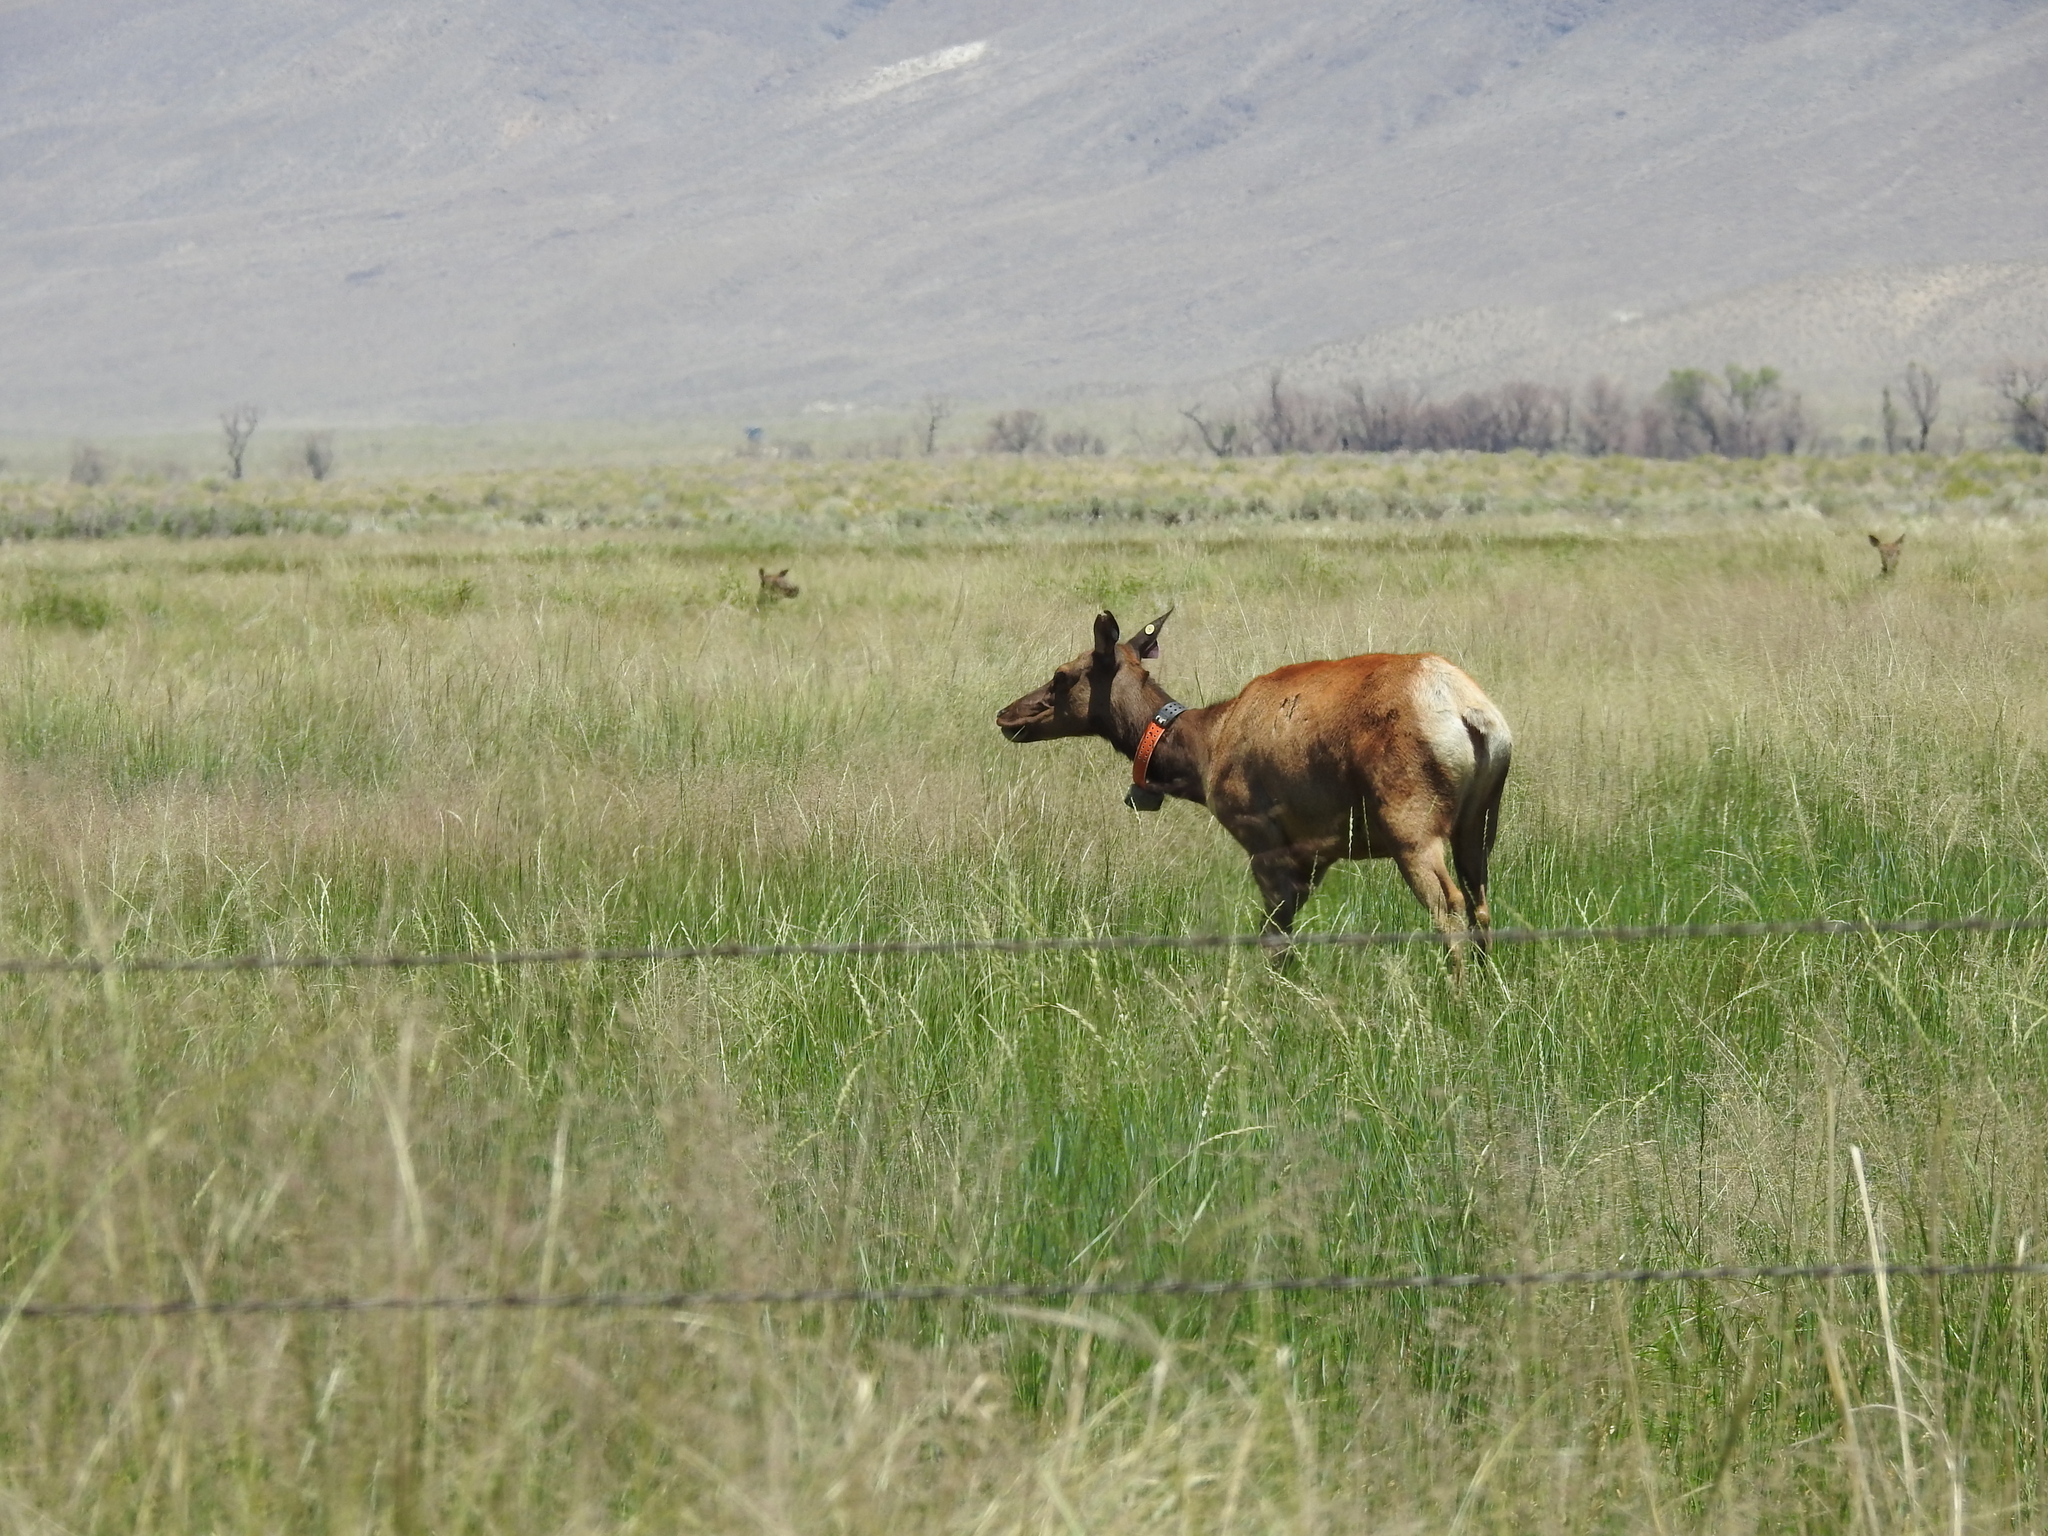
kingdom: Animalia
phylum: Chordata
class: Mammalia
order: Artiodactyla
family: Cervidae
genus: Cervus
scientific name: Cervus elaphus
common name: Red deer
